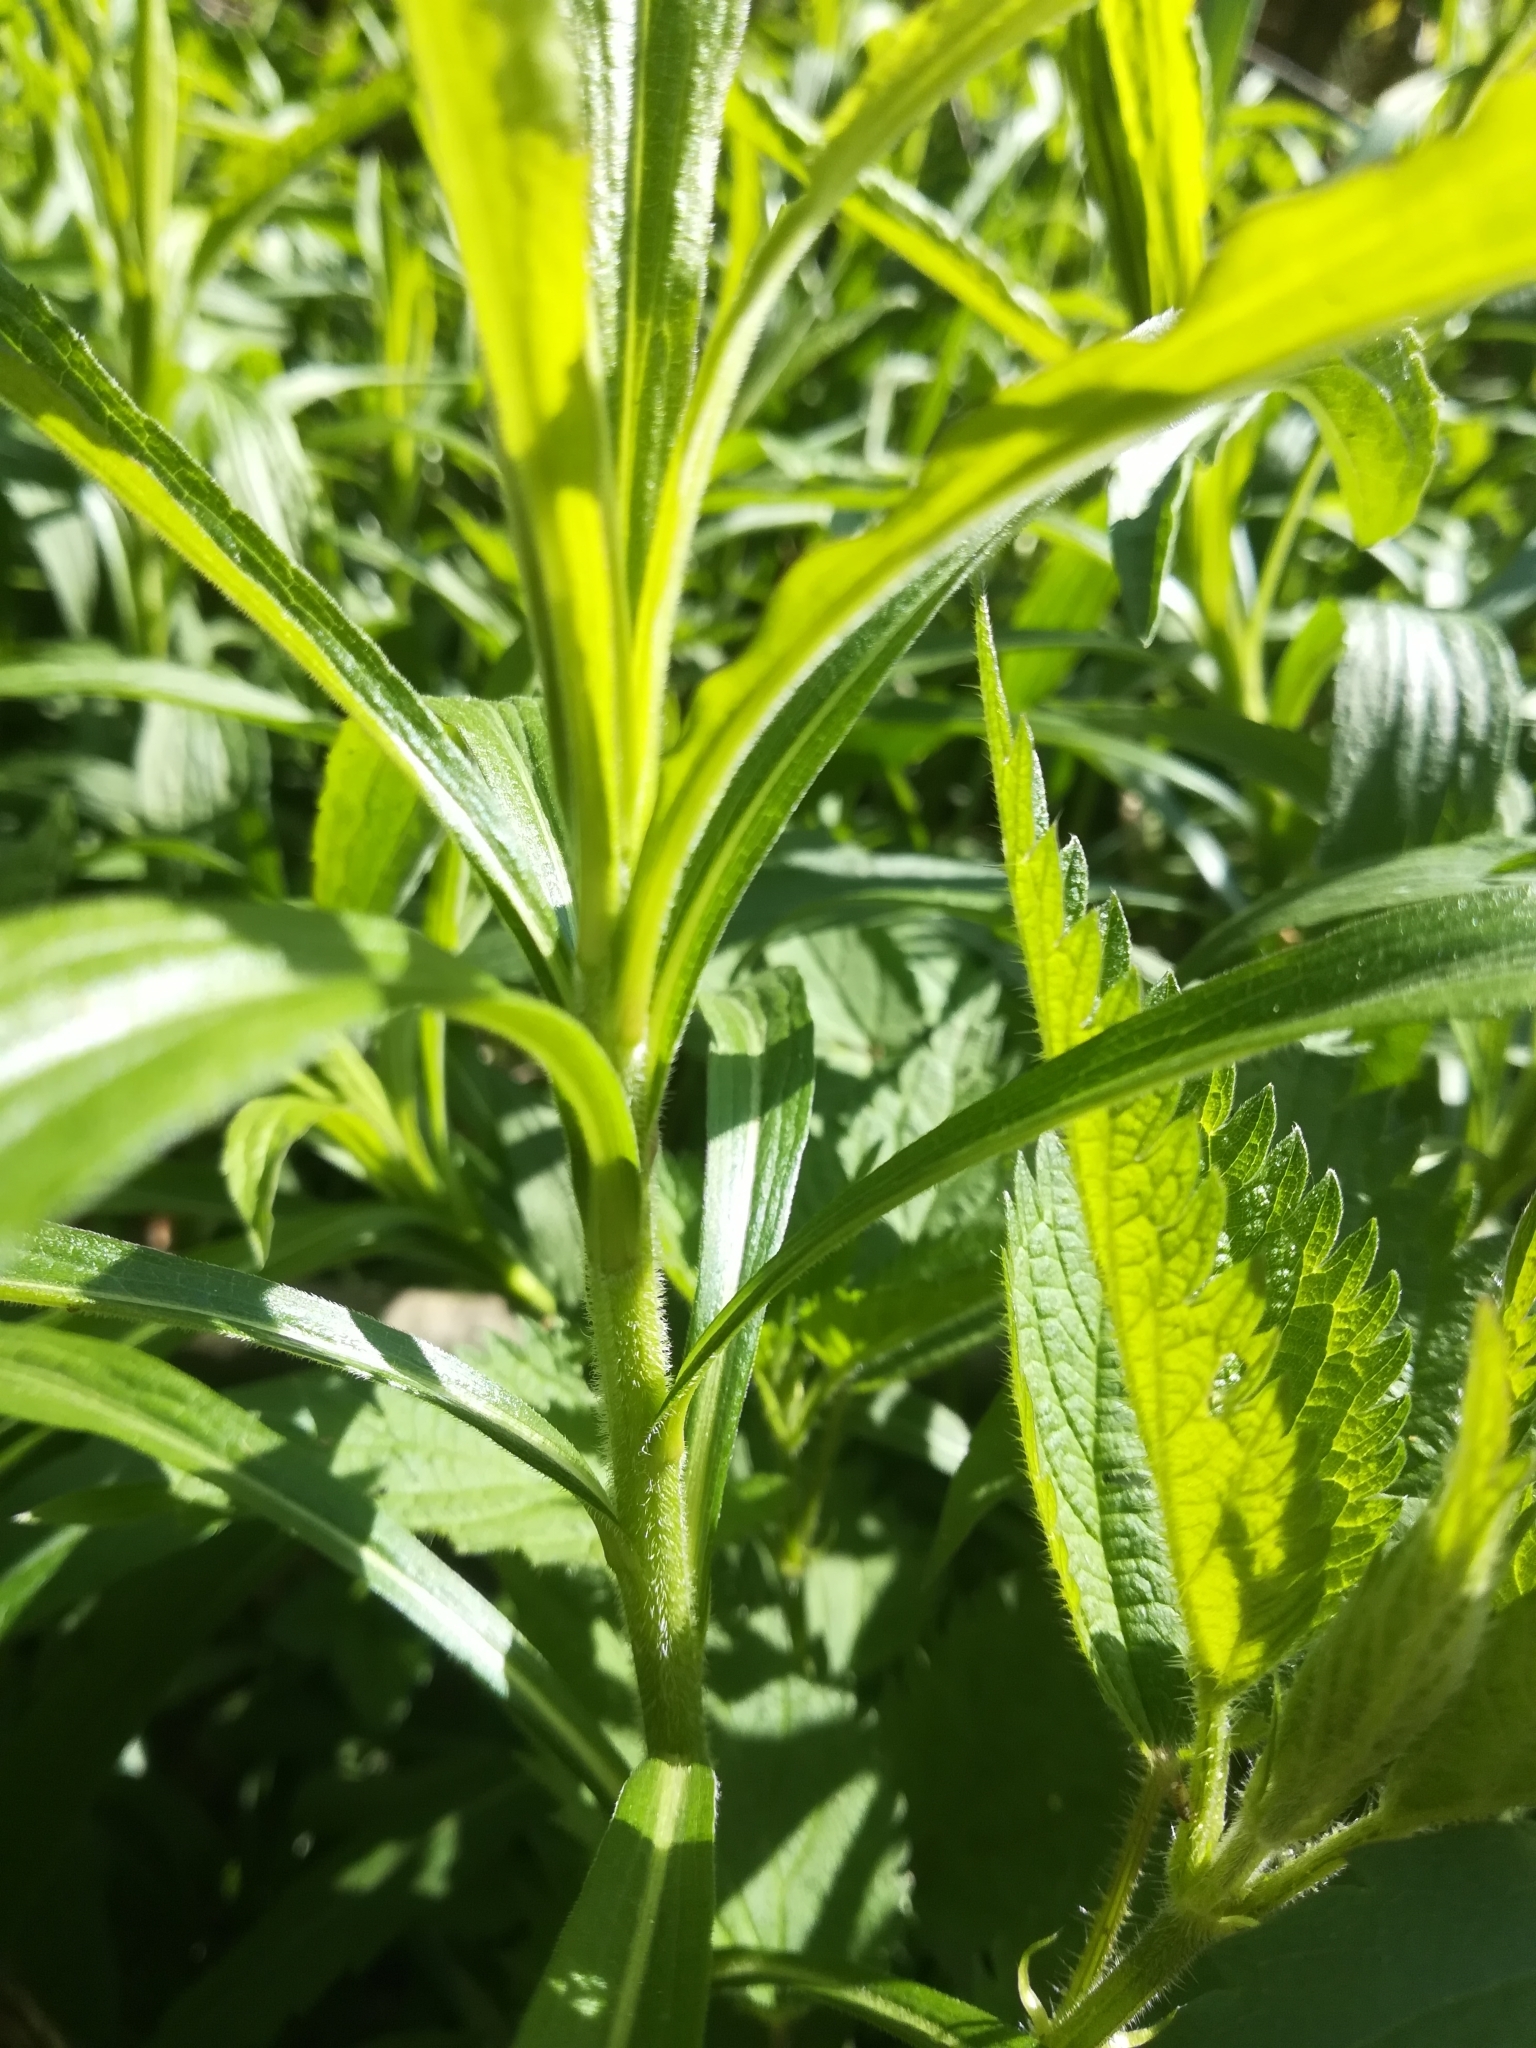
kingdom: Plantae
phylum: Tracheophyta
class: Magnoliopsida
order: Asterales
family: Asteraceae
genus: Solidago
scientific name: Solidago canadensis
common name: Canada goldenrod
